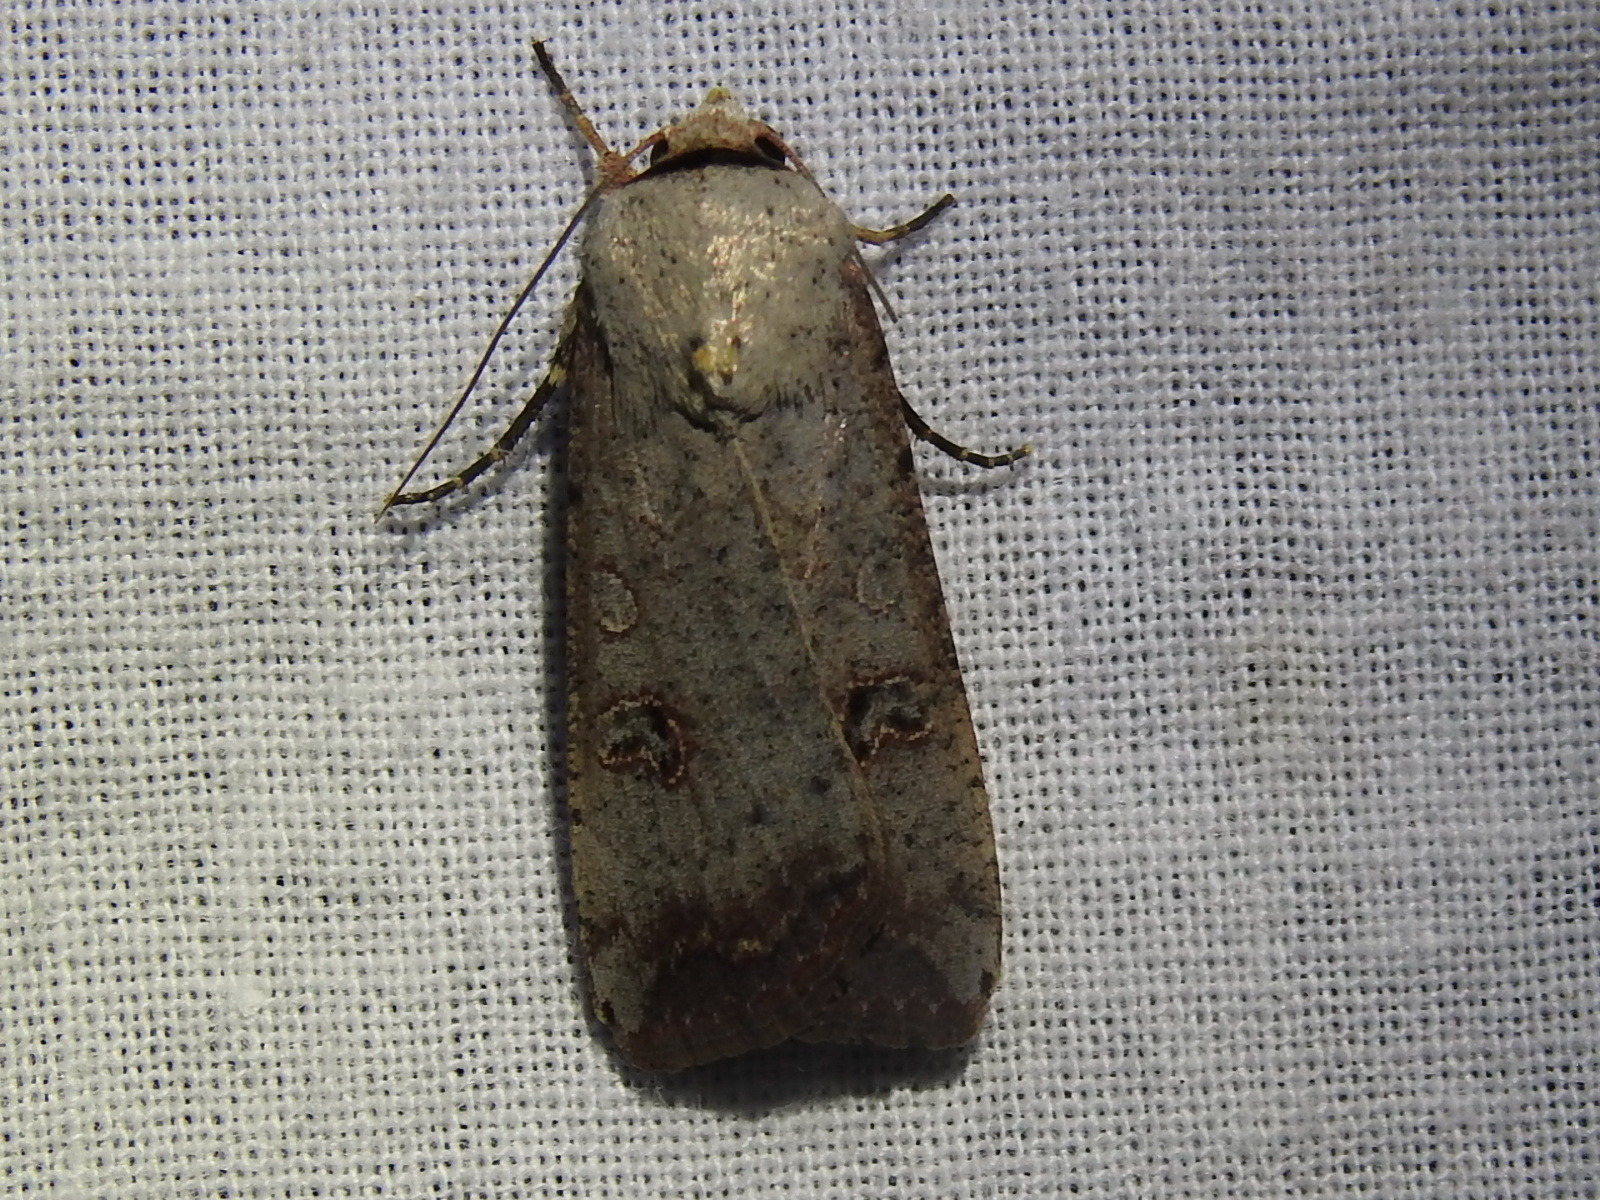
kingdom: Animalia
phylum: Arthropoda
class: Insecta
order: Lepidoptera
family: Noctuidae
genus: Anicla
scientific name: Anicla infecta
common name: Green cutworm
